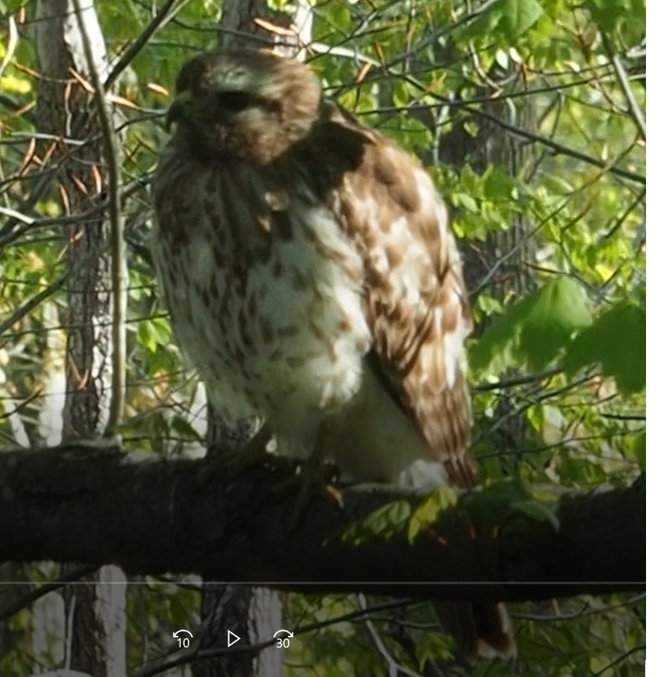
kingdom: Animalia
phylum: Chordata
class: Aves
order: Accipitriformes
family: Accipitridae
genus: Buteo
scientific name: Buteo lineatus
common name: Red-shouldered hawk
